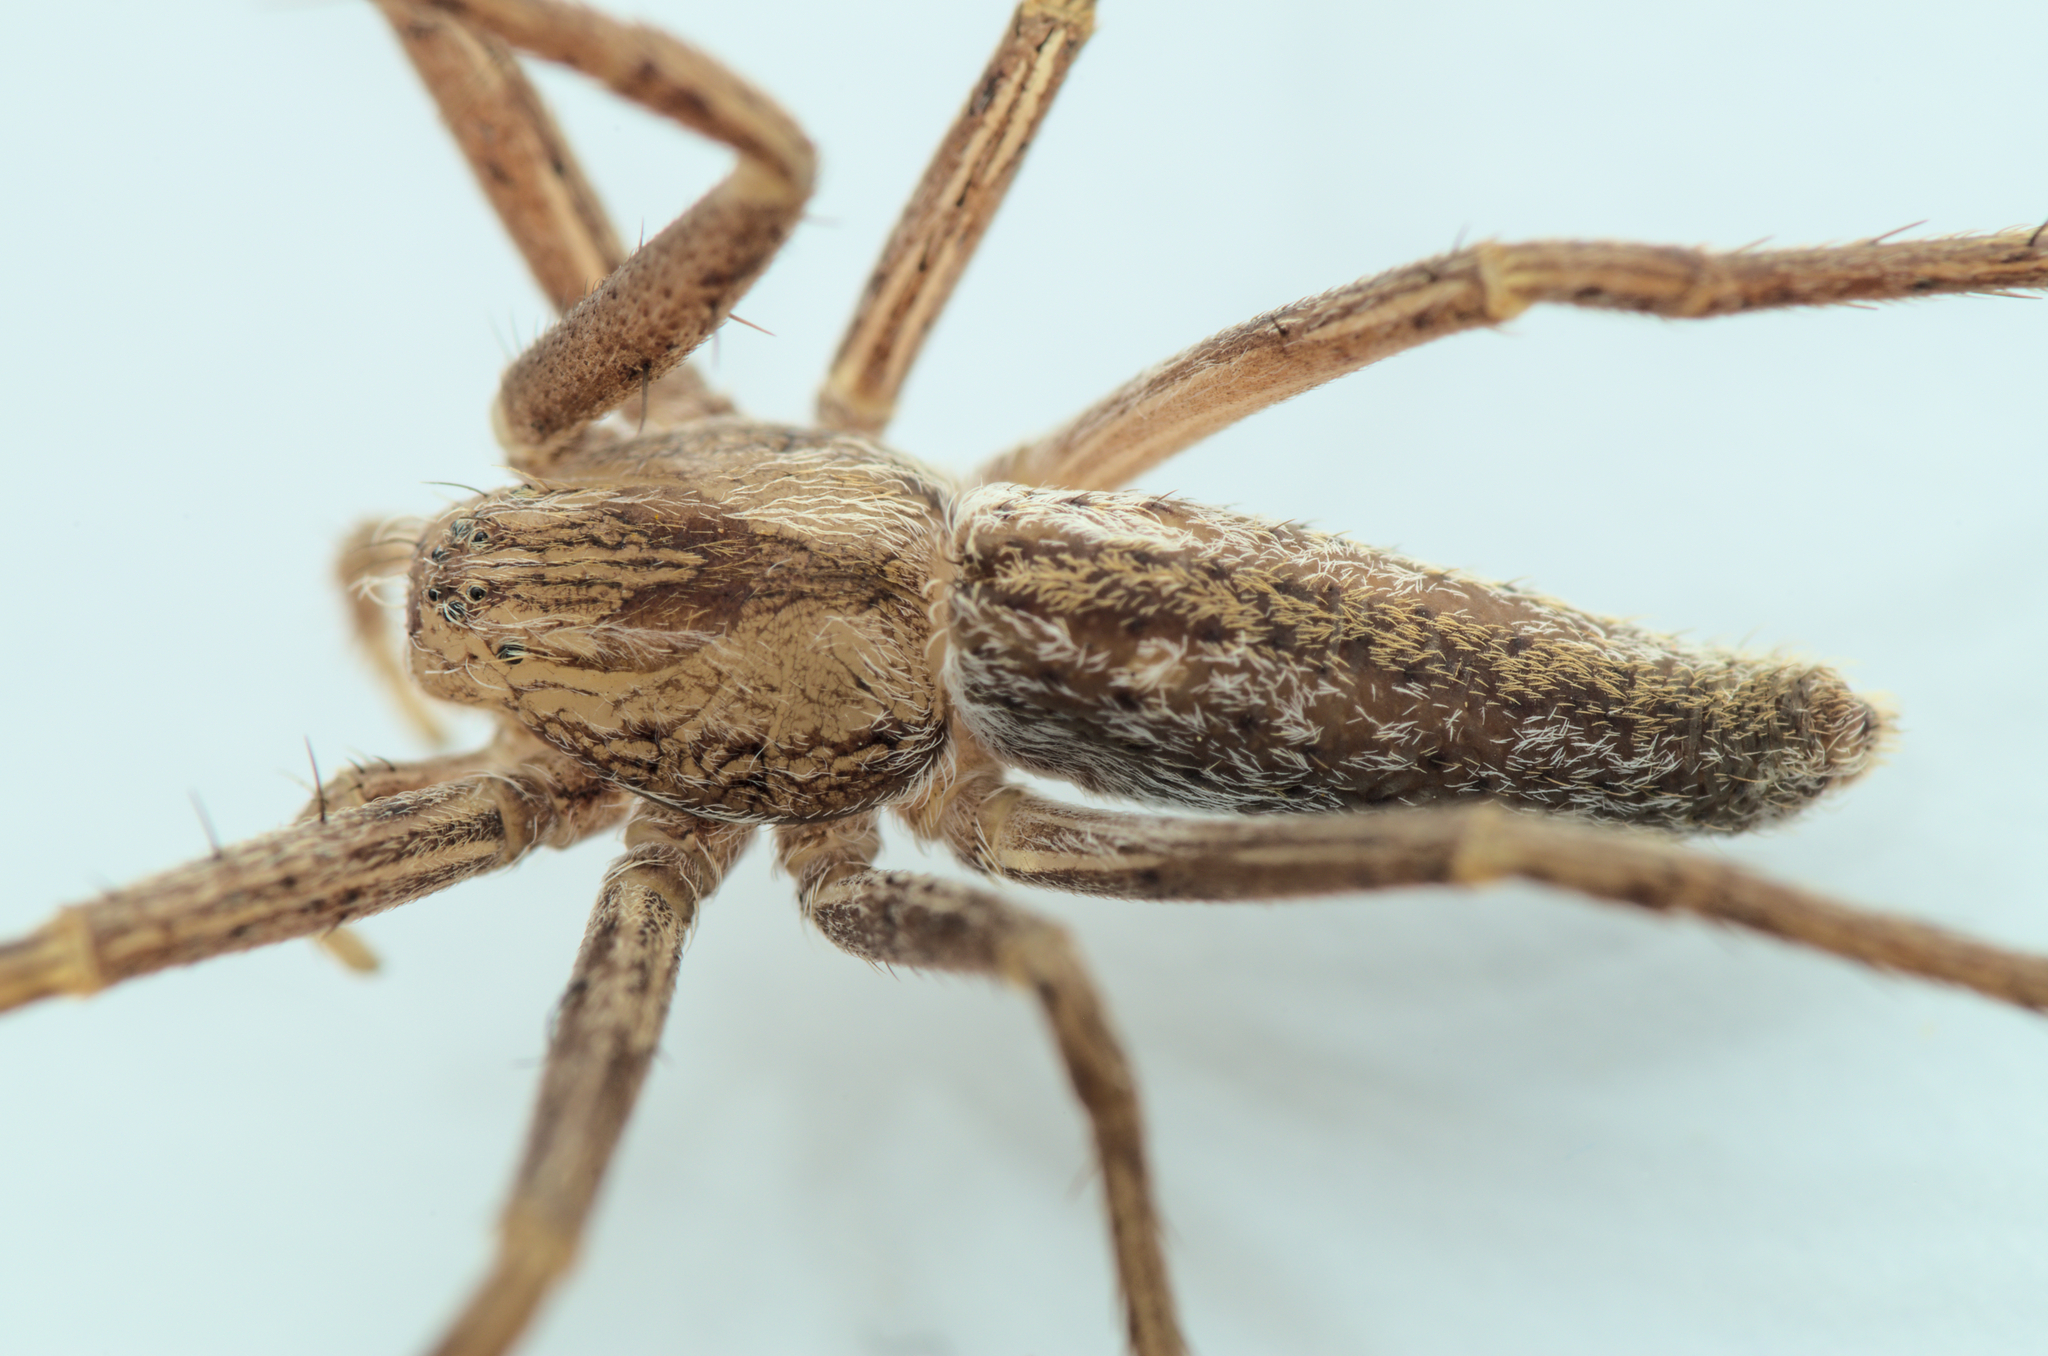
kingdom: Animalia
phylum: Arthropoda
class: Arachnida
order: Araneae
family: Philodromidae
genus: Tibellus
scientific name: Tibellus oblongus
